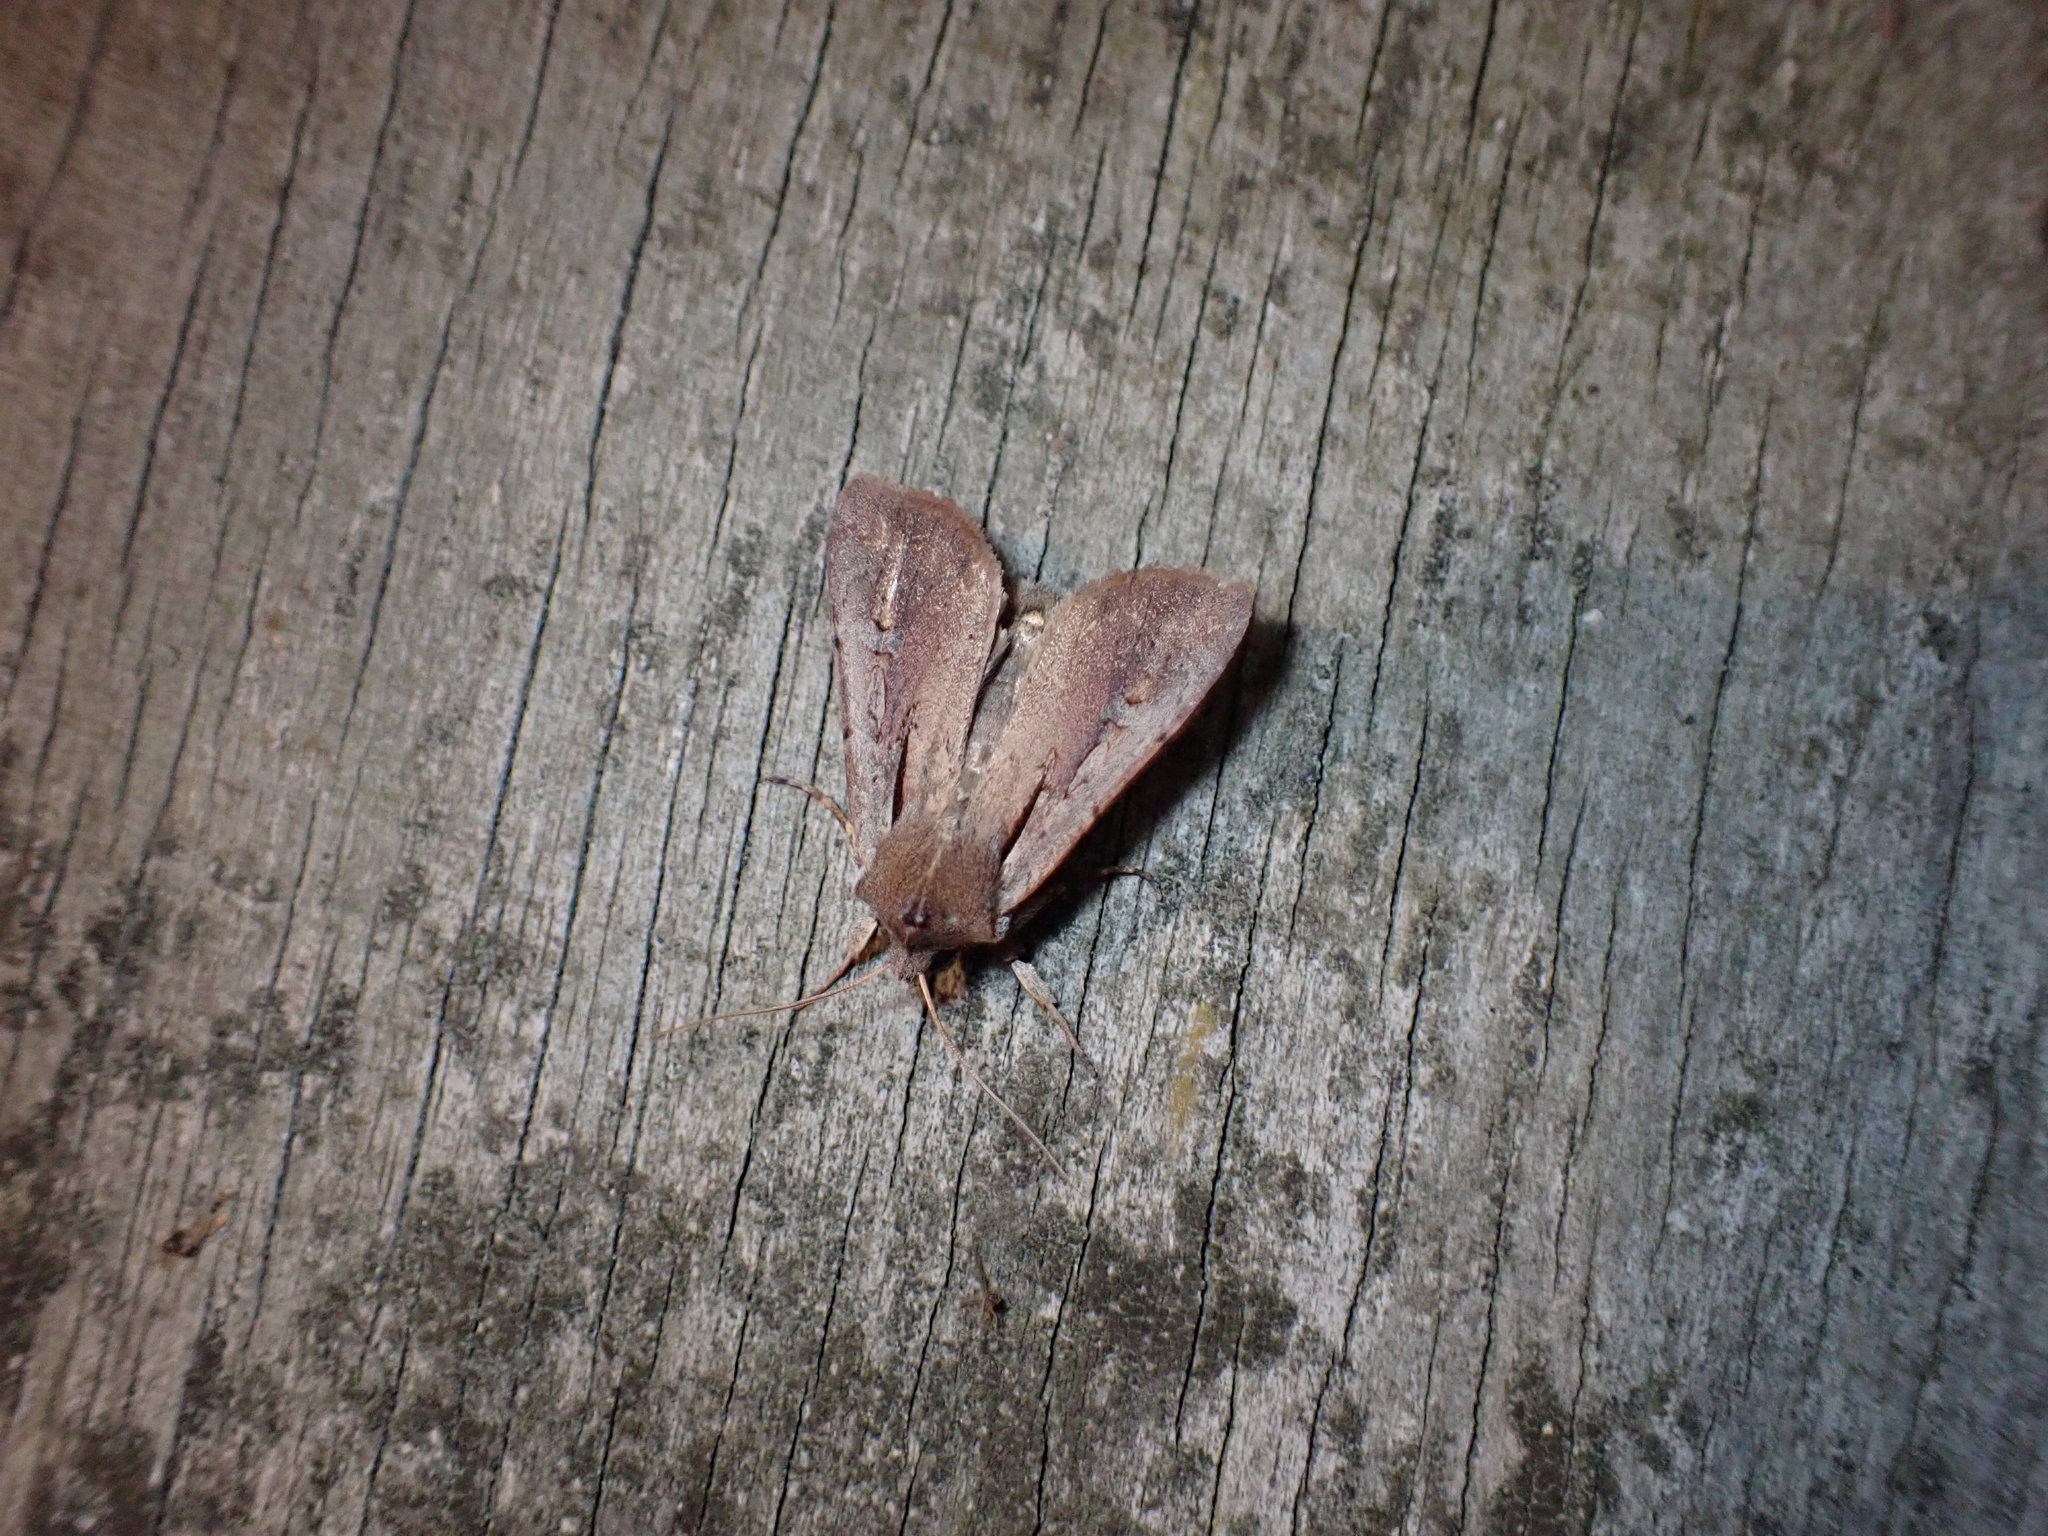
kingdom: Animalia
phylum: Arthropoda
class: Insecta
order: Lepidoptera
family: Noctuidae
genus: Ichneutica
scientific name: Ichneutica atristriga
